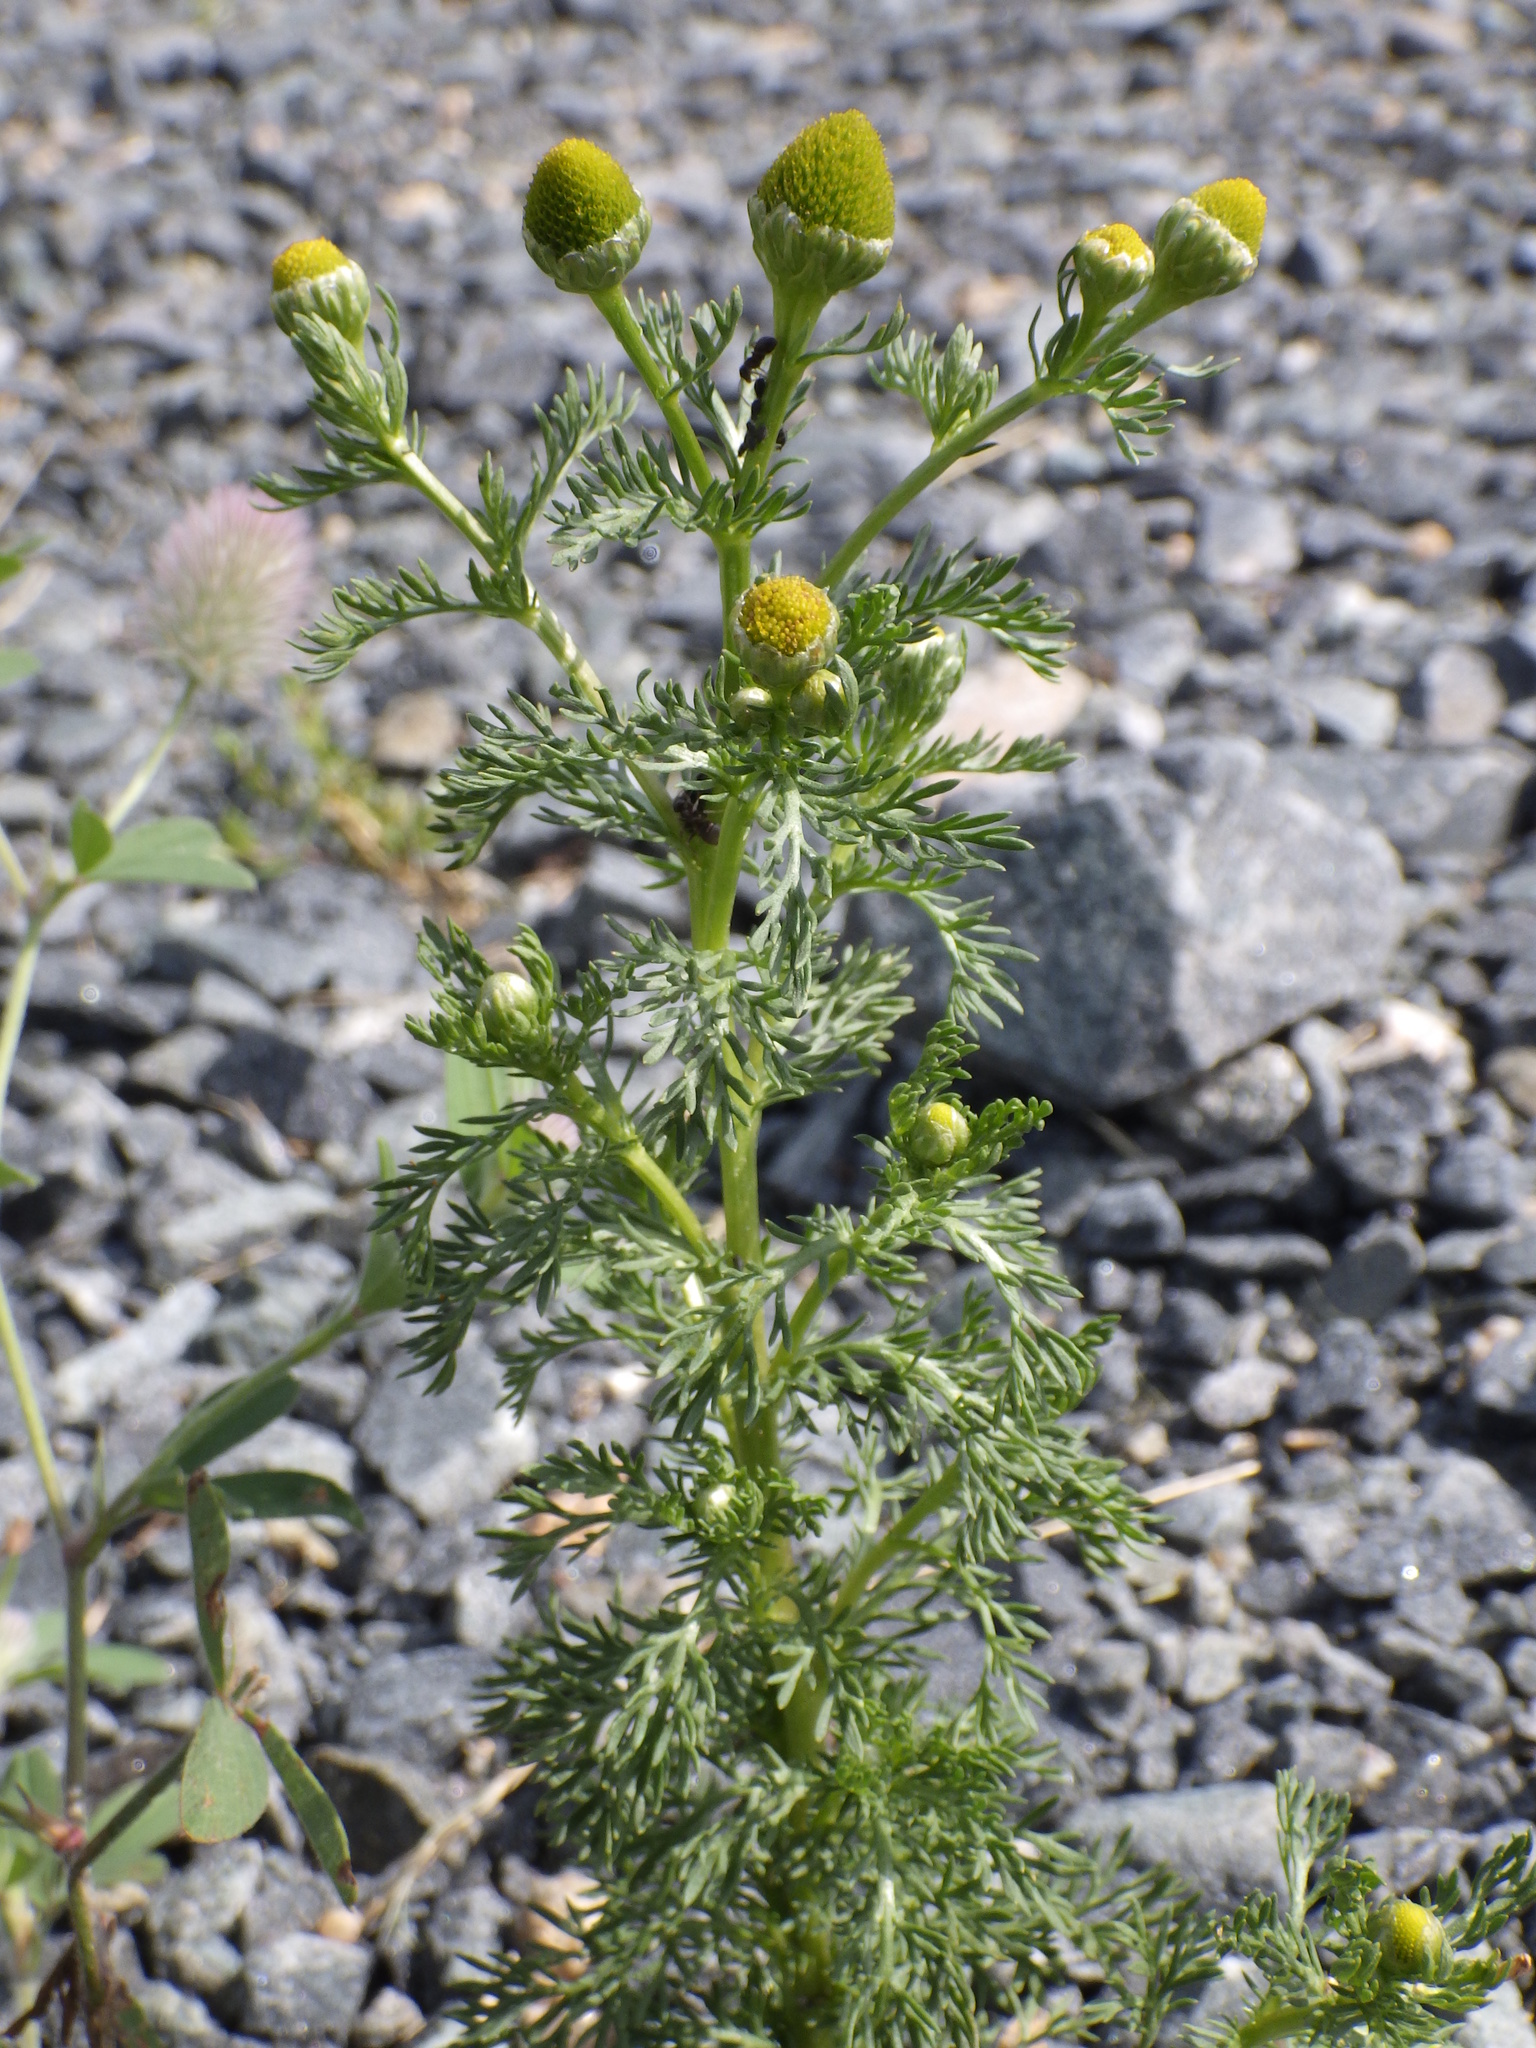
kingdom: Plantae
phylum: Tracheophyta
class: Magnoliopsida
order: Asterales
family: Asteraceae
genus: Matricaria
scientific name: Matricaria discoidea
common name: Disc mayweed
